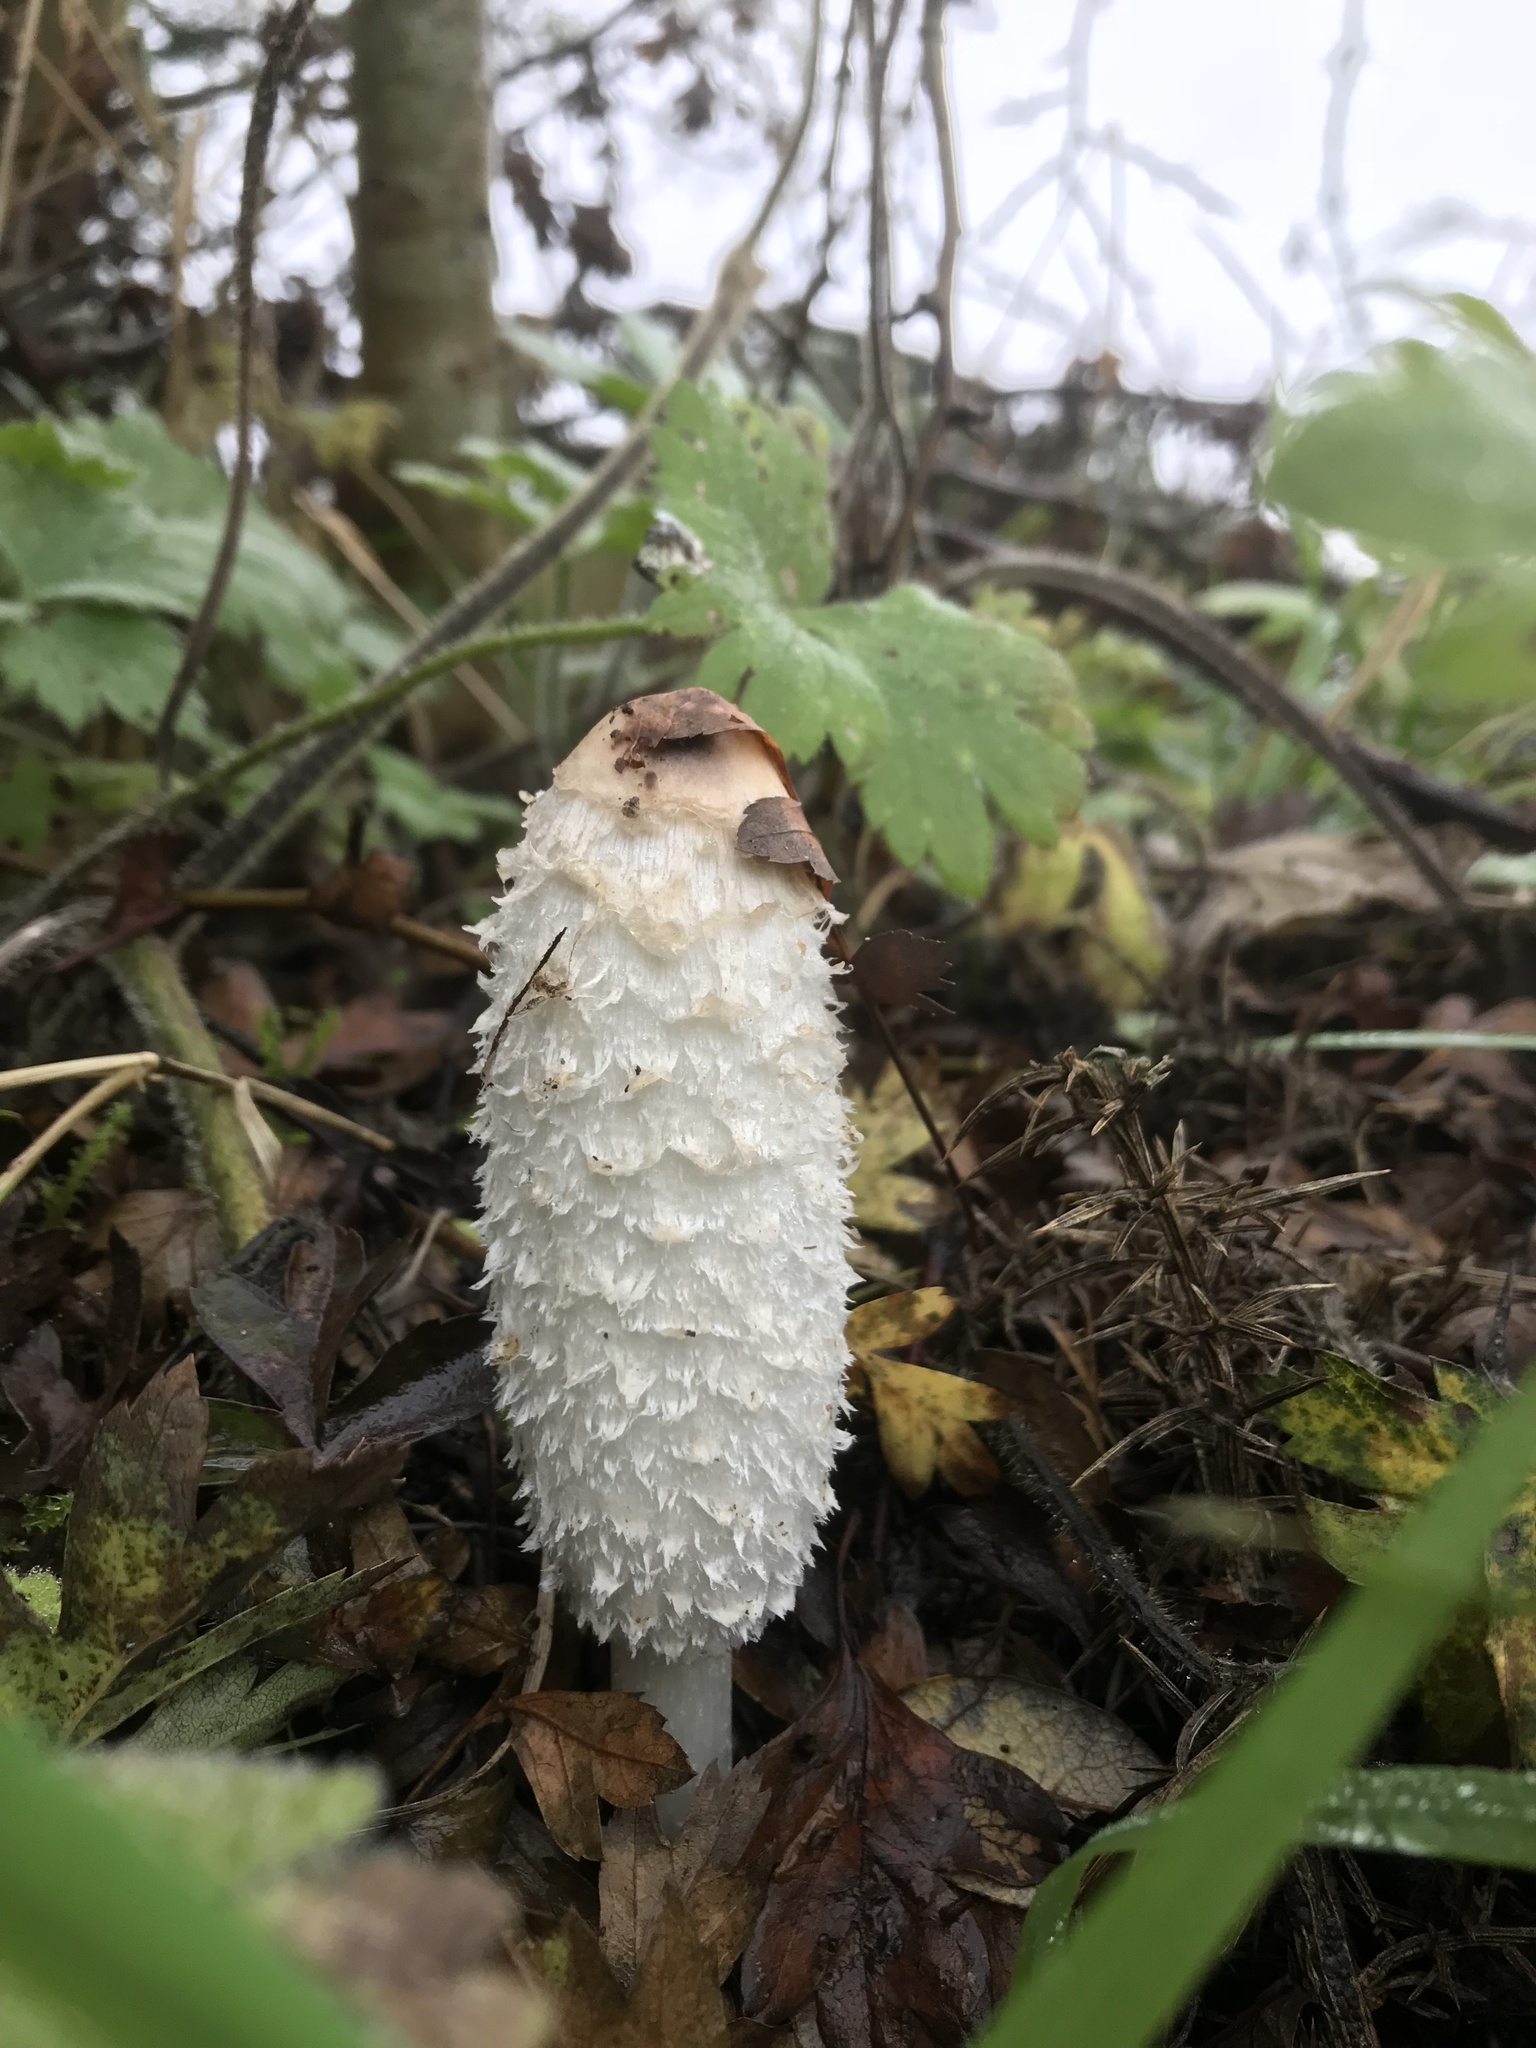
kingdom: Fungi
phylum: Basidiomycota
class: Agaricomycetes
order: Agaricales
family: Agaricaceae
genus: Coprinus
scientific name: Coprinus comatus
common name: Lawyer's wig
